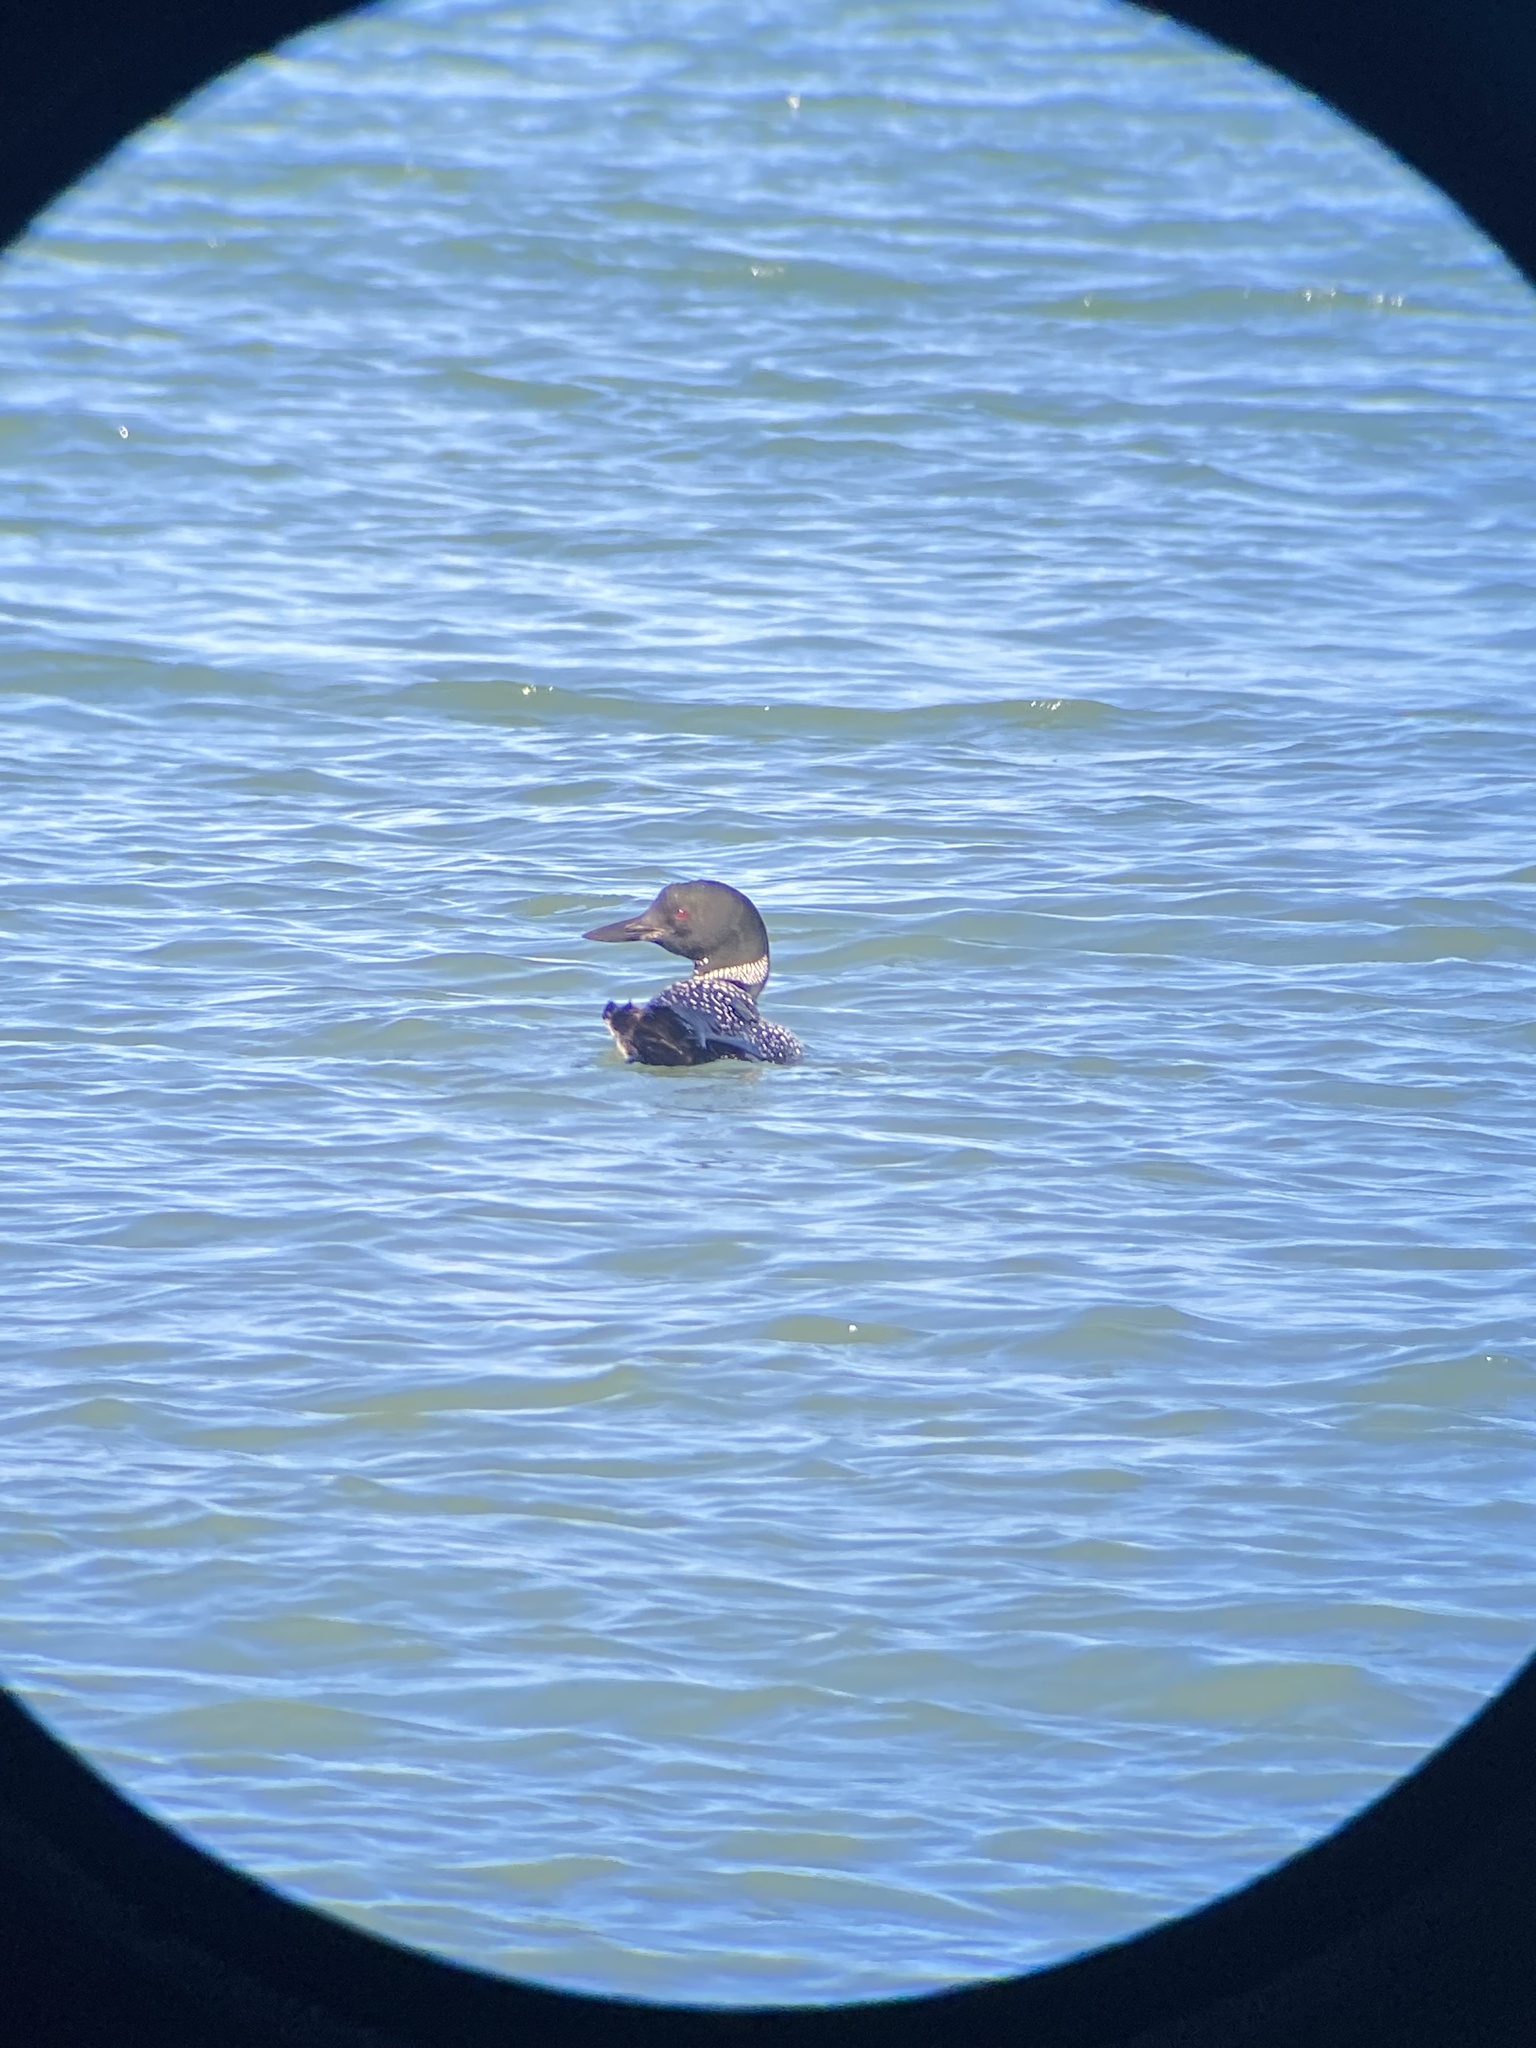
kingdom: Animalia
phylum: Chordata
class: Aves
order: Gaviiformes
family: Gaviidae
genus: Gavia
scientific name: Gavia immer
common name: Common loon
